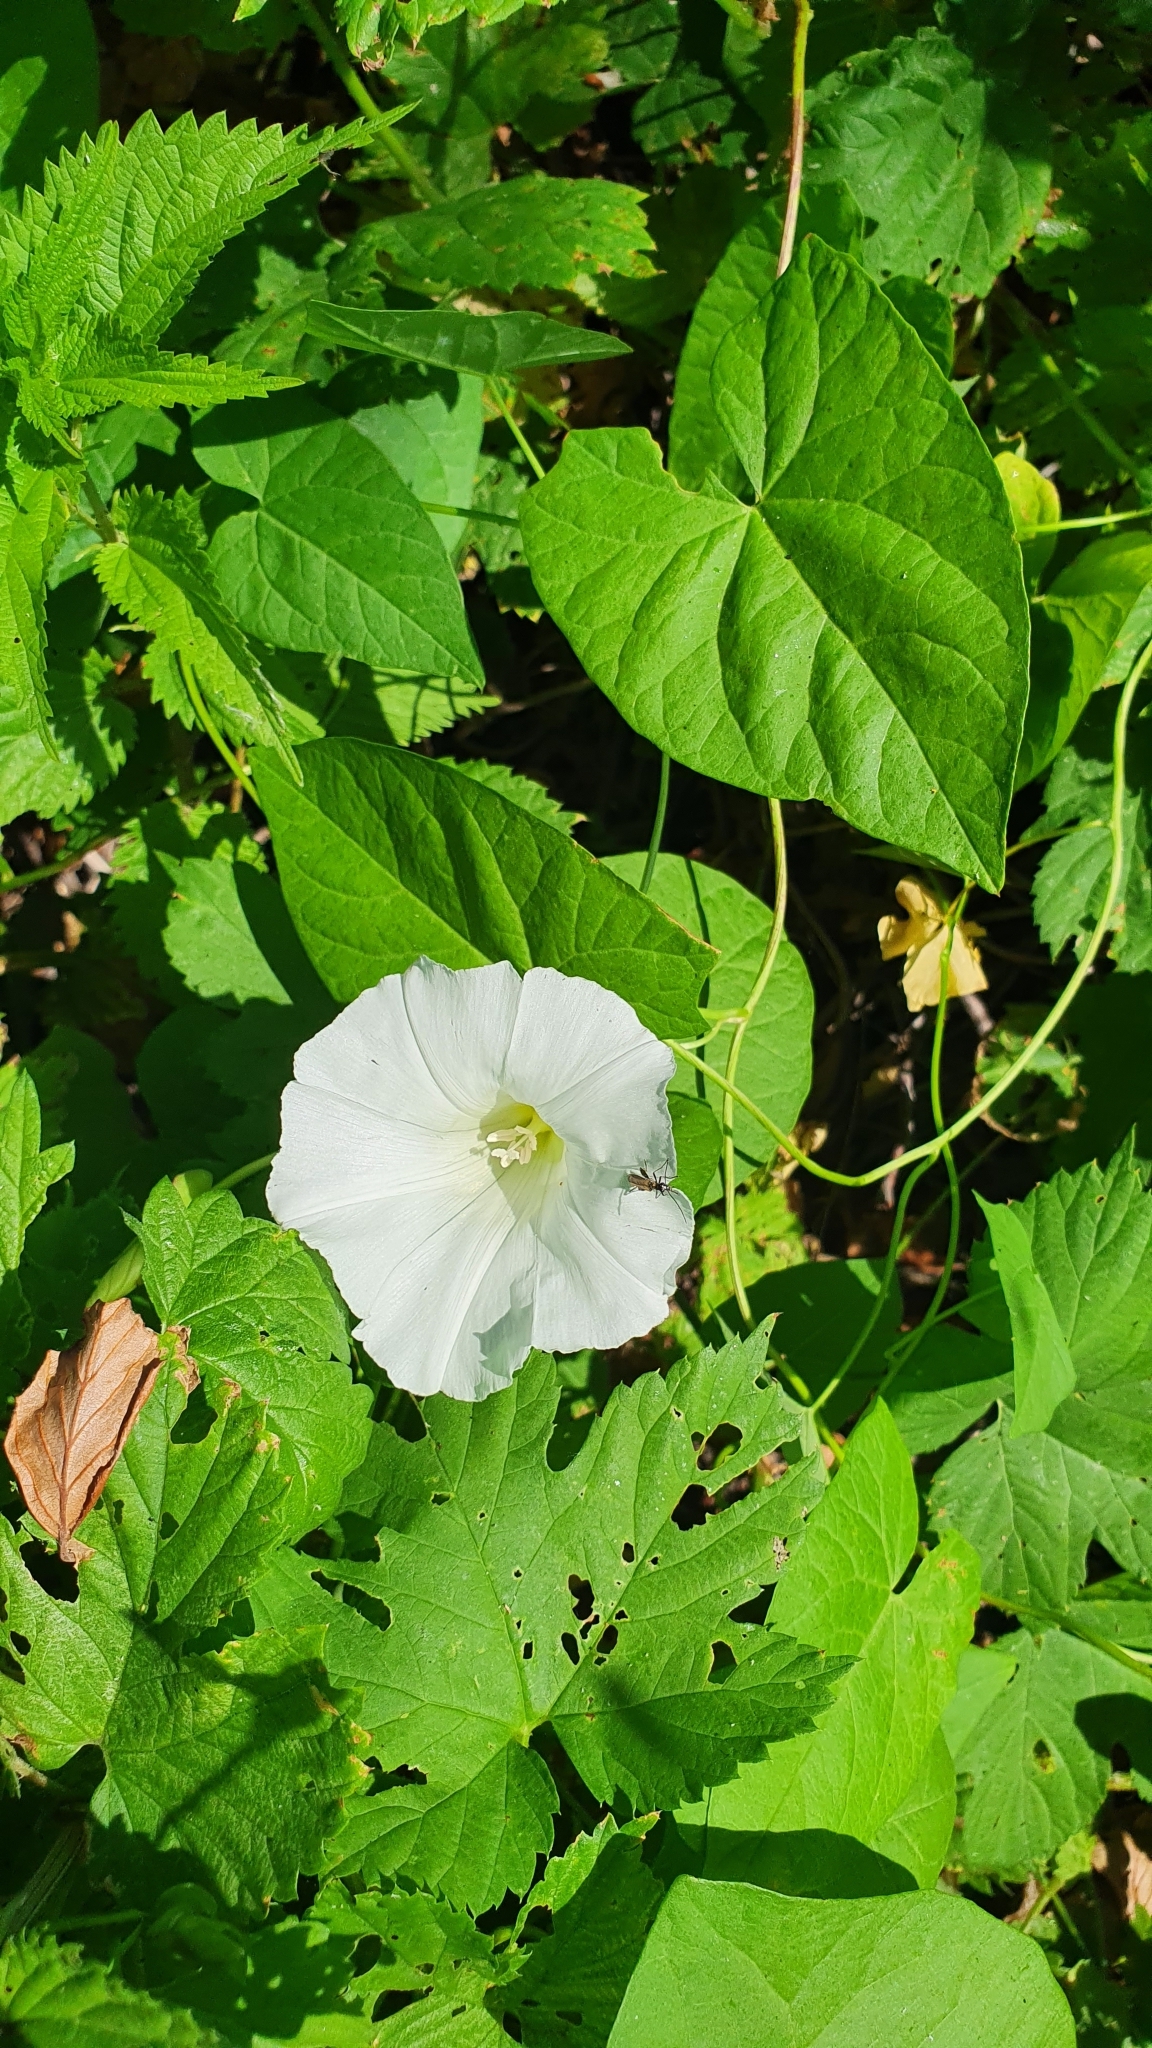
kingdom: Plantae
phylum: Tracheophyta
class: Magnoliopsida
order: Solanales
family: Convolvulaceae
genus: Calystegia
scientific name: Calystegia sepium
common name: Hedge bindweed
